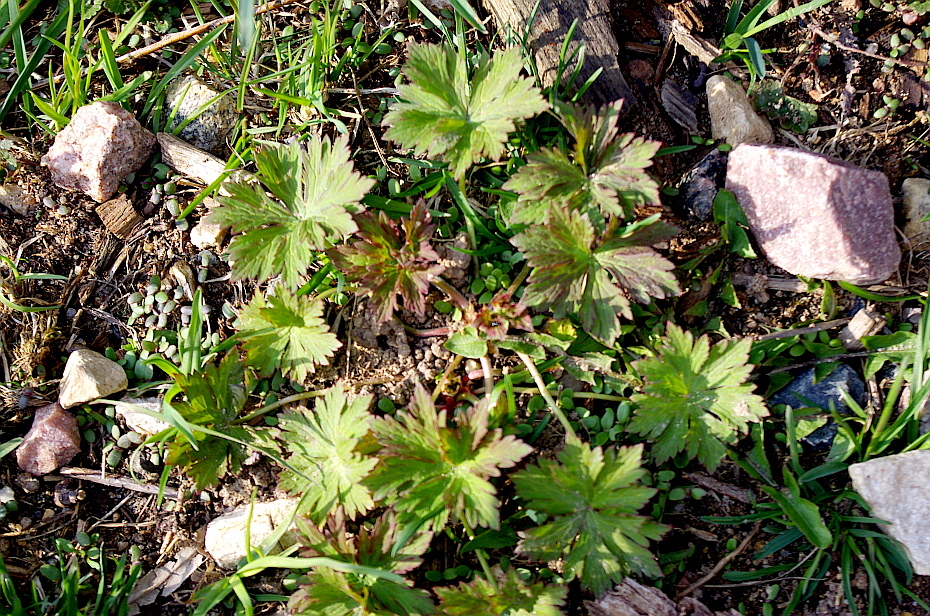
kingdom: Plantae
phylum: Tracheophyta
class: Magnoliopsida
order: Geraniales
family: Geraniaceae
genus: Geranium
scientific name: Geranium pratense
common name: Meadow crane's-bill
